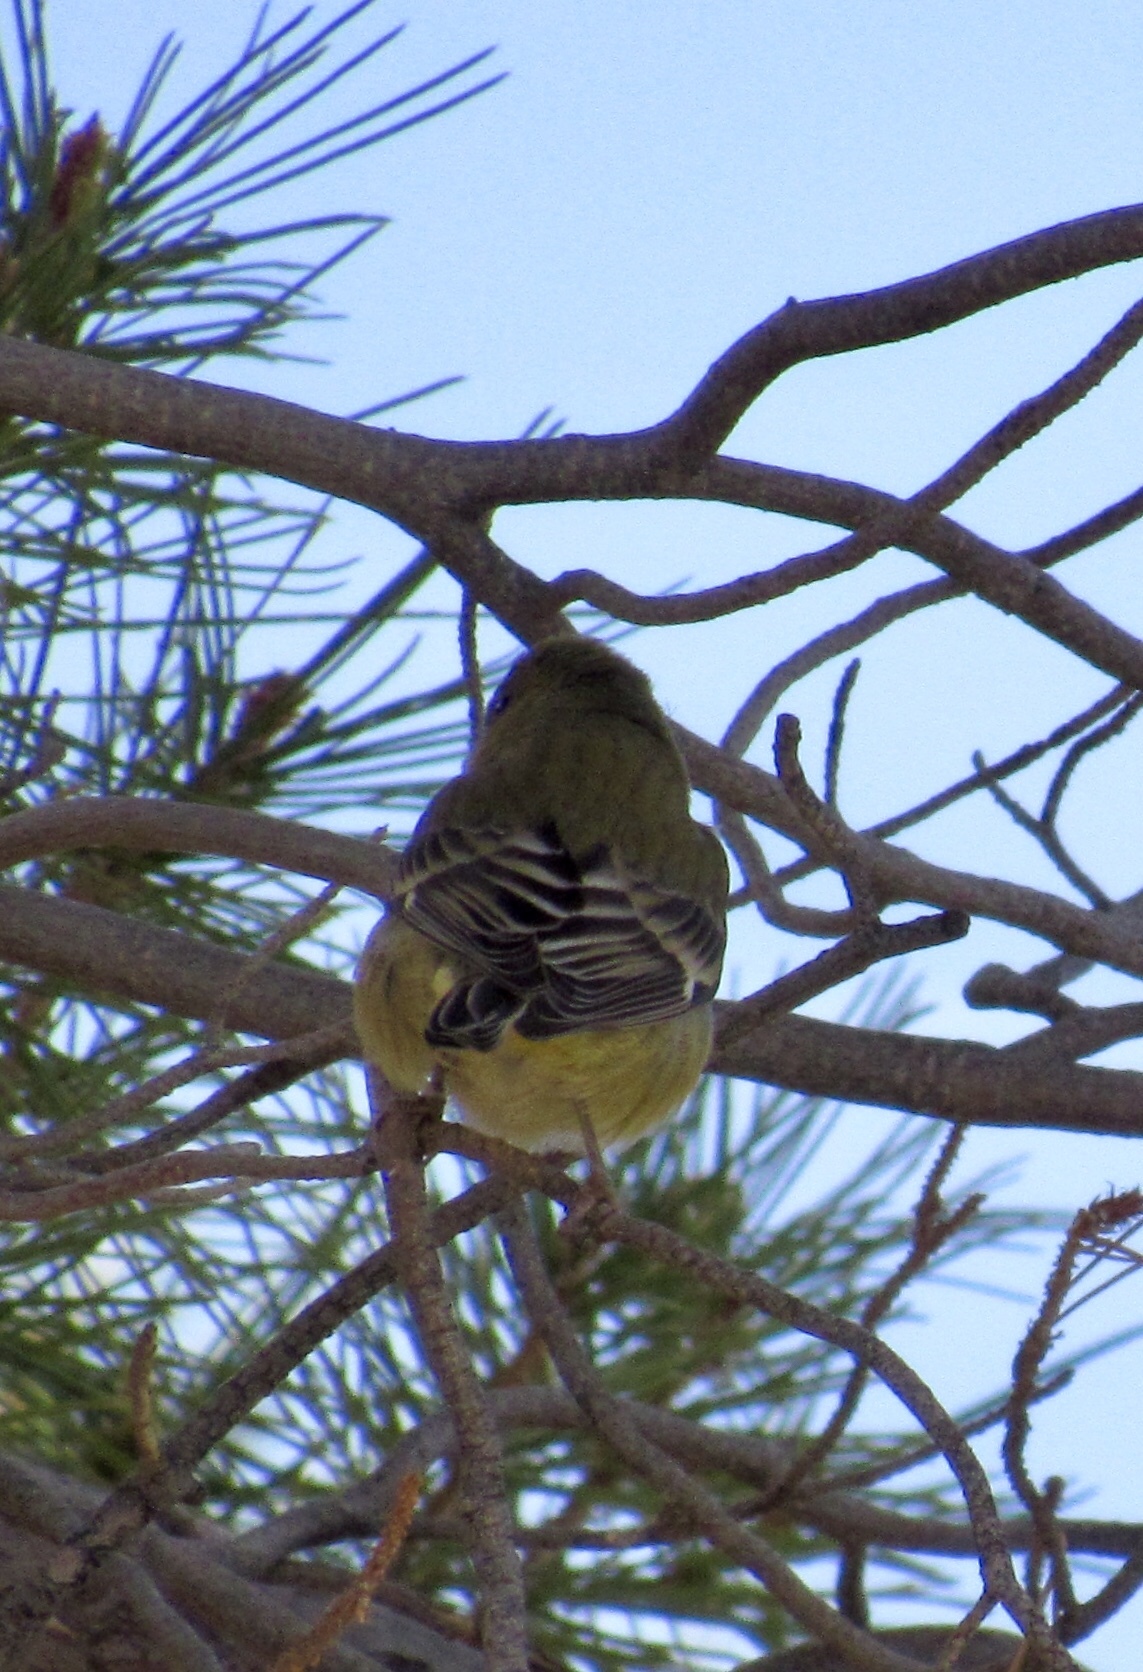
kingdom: Animalia
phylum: Chordata
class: Aves
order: Passeriformes
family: Fringillidae
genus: Spinus
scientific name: Spinus psaltria
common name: Lesser goldfinch
